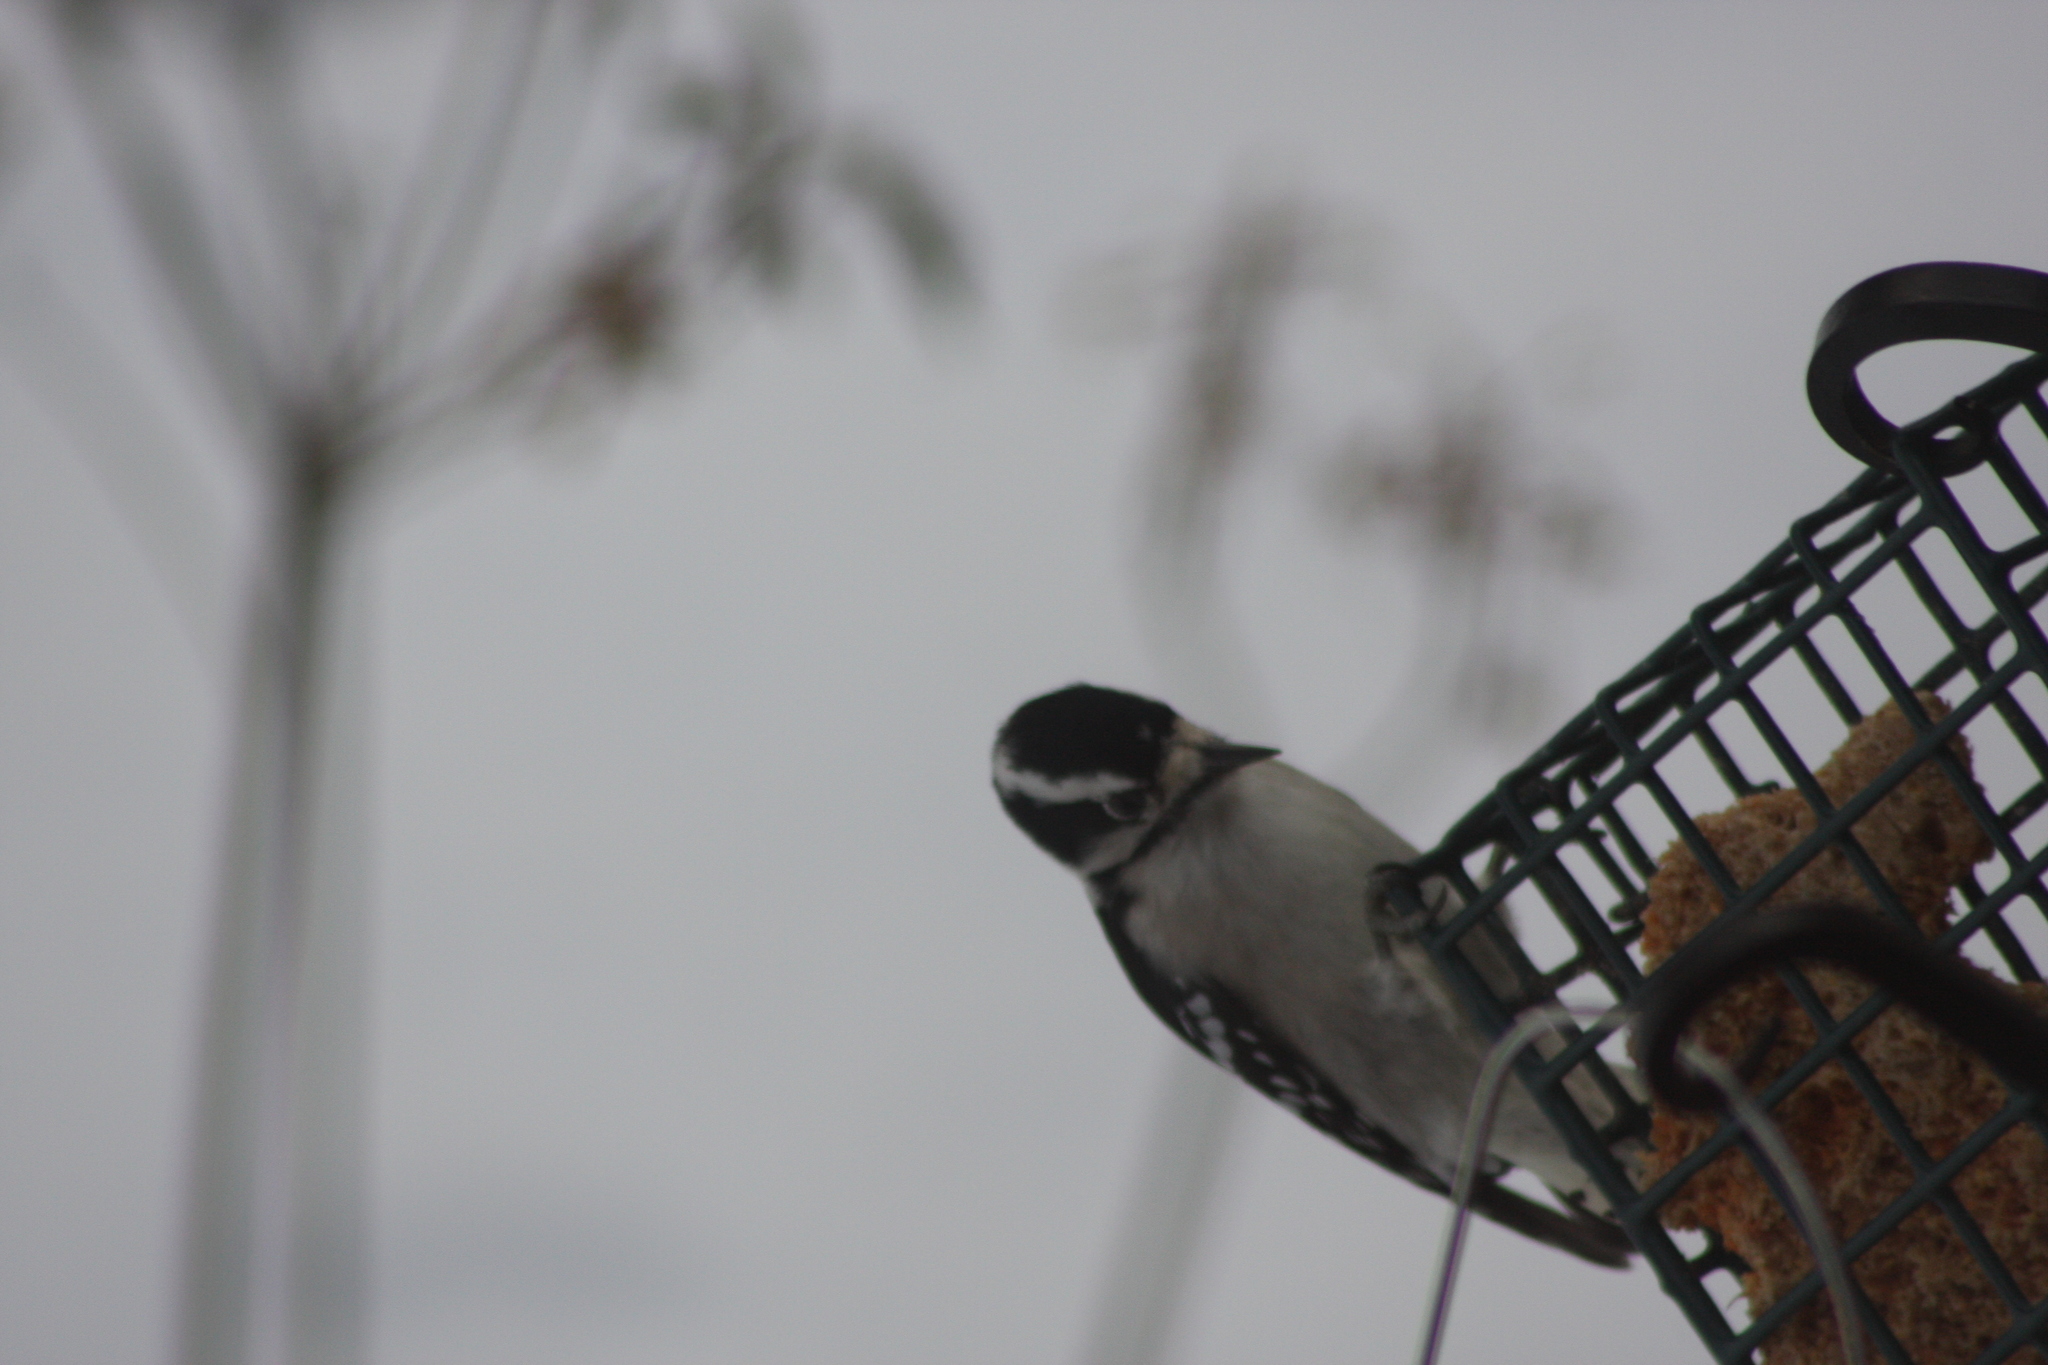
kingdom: Animalia
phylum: Chordata
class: Aves
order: Piciformes
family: Picidae
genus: Dryobates
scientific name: Dryobates pubescens
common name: Downy woodpecker
